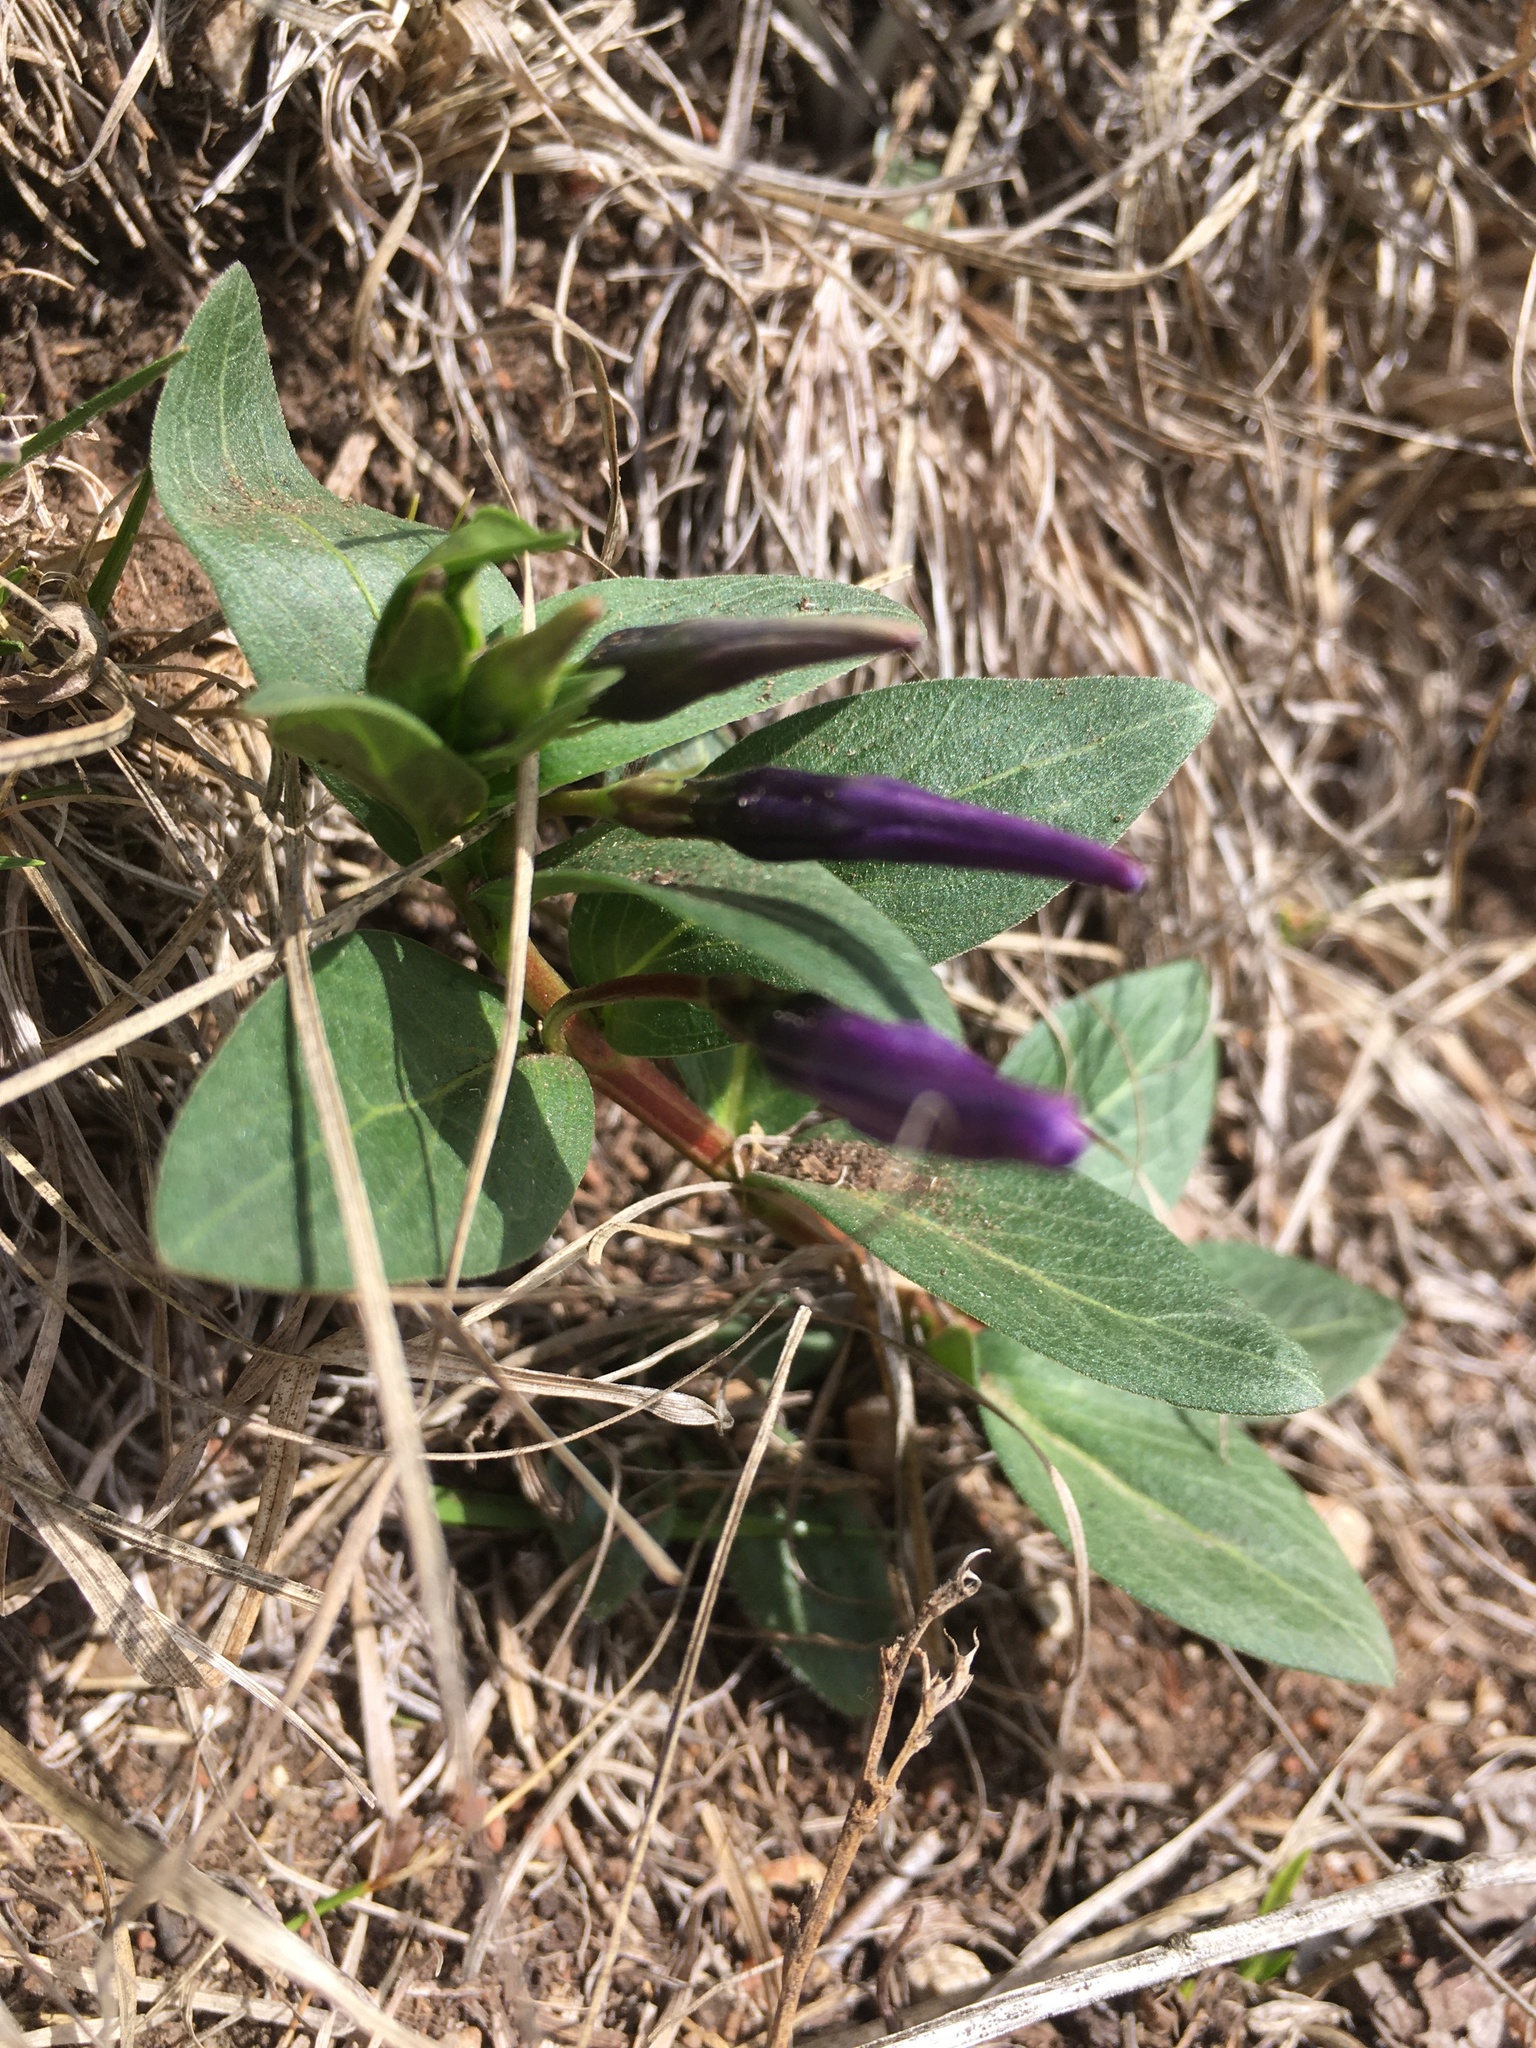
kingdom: Plantae
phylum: Tracheophyta
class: Magnoliopsida
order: Gentianales
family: Apocynaceae
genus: Vinca
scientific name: Vinca herbacea
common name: Herbaceous periwinkle
